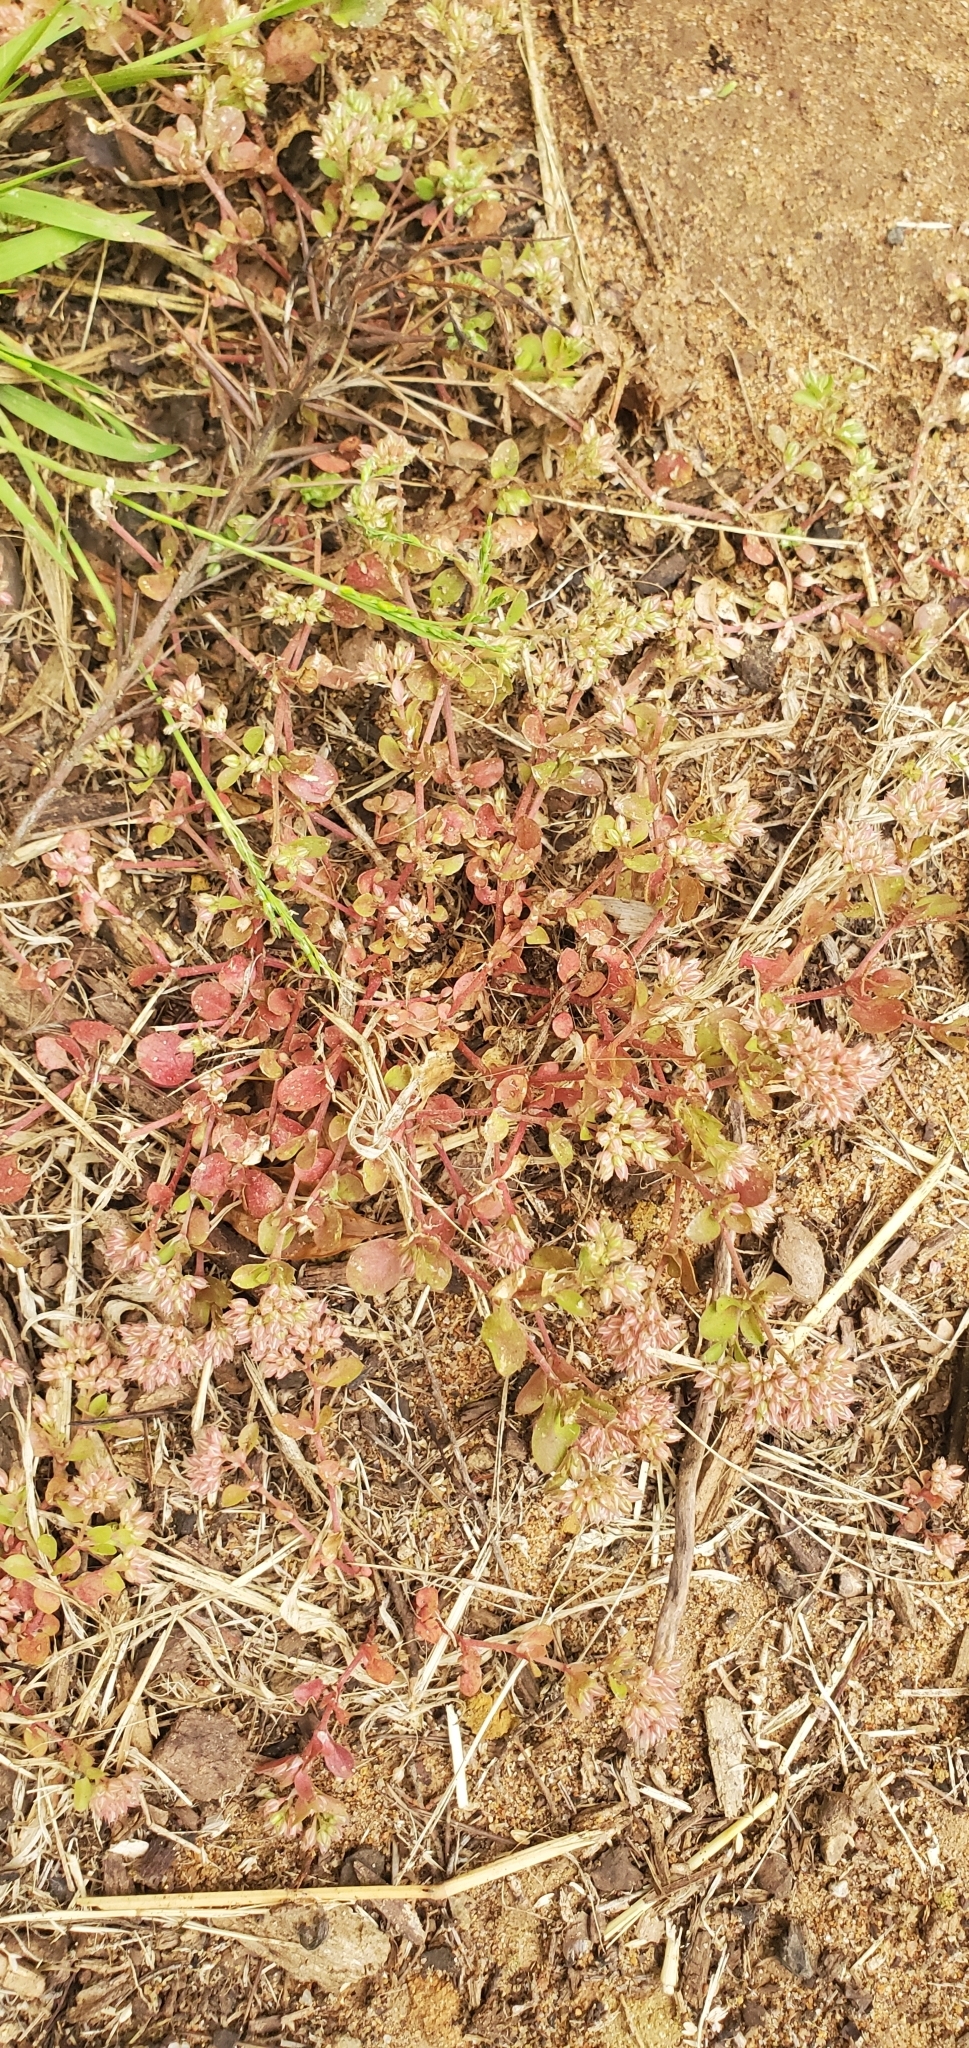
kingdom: Plantae
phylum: Tracheophyta
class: Magnoliopsida
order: Caryophyllales
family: Caryophyllaceae
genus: Polycarpon
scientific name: Polycarpon tetraphyllum
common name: Four-leaved all-seed
